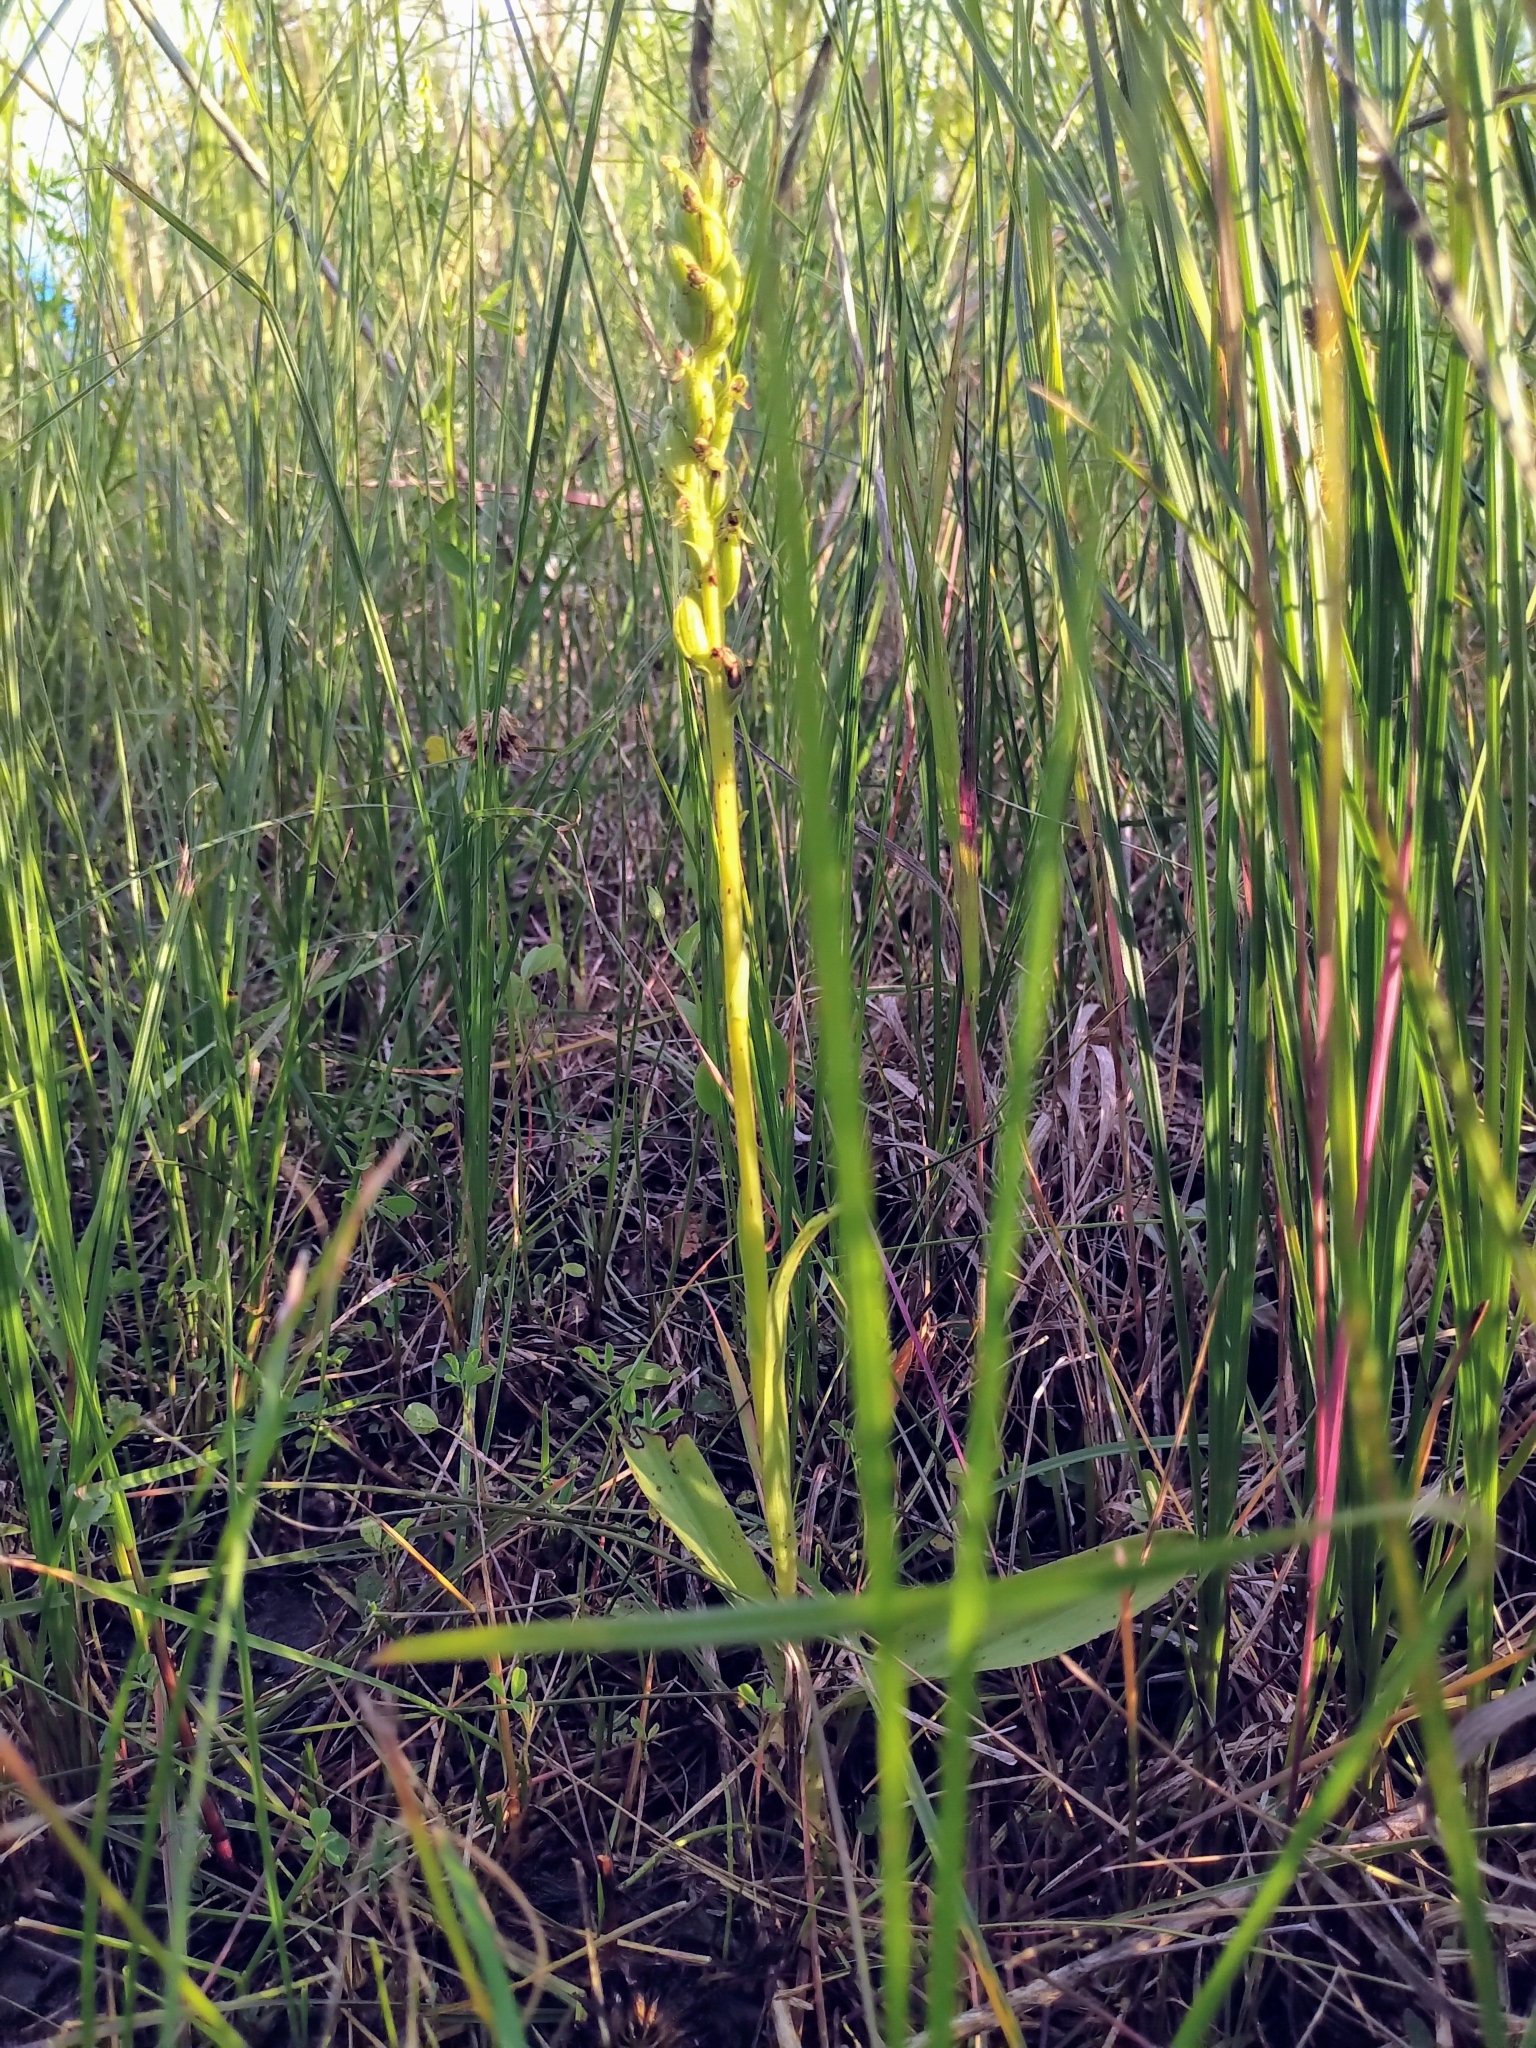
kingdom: Plantae
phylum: Tracheophyta
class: Liliopsida
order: Asparagales
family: Orchidaceae
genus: Platanthera
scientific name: Platanthera aquilonis
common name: Northern green orchid
